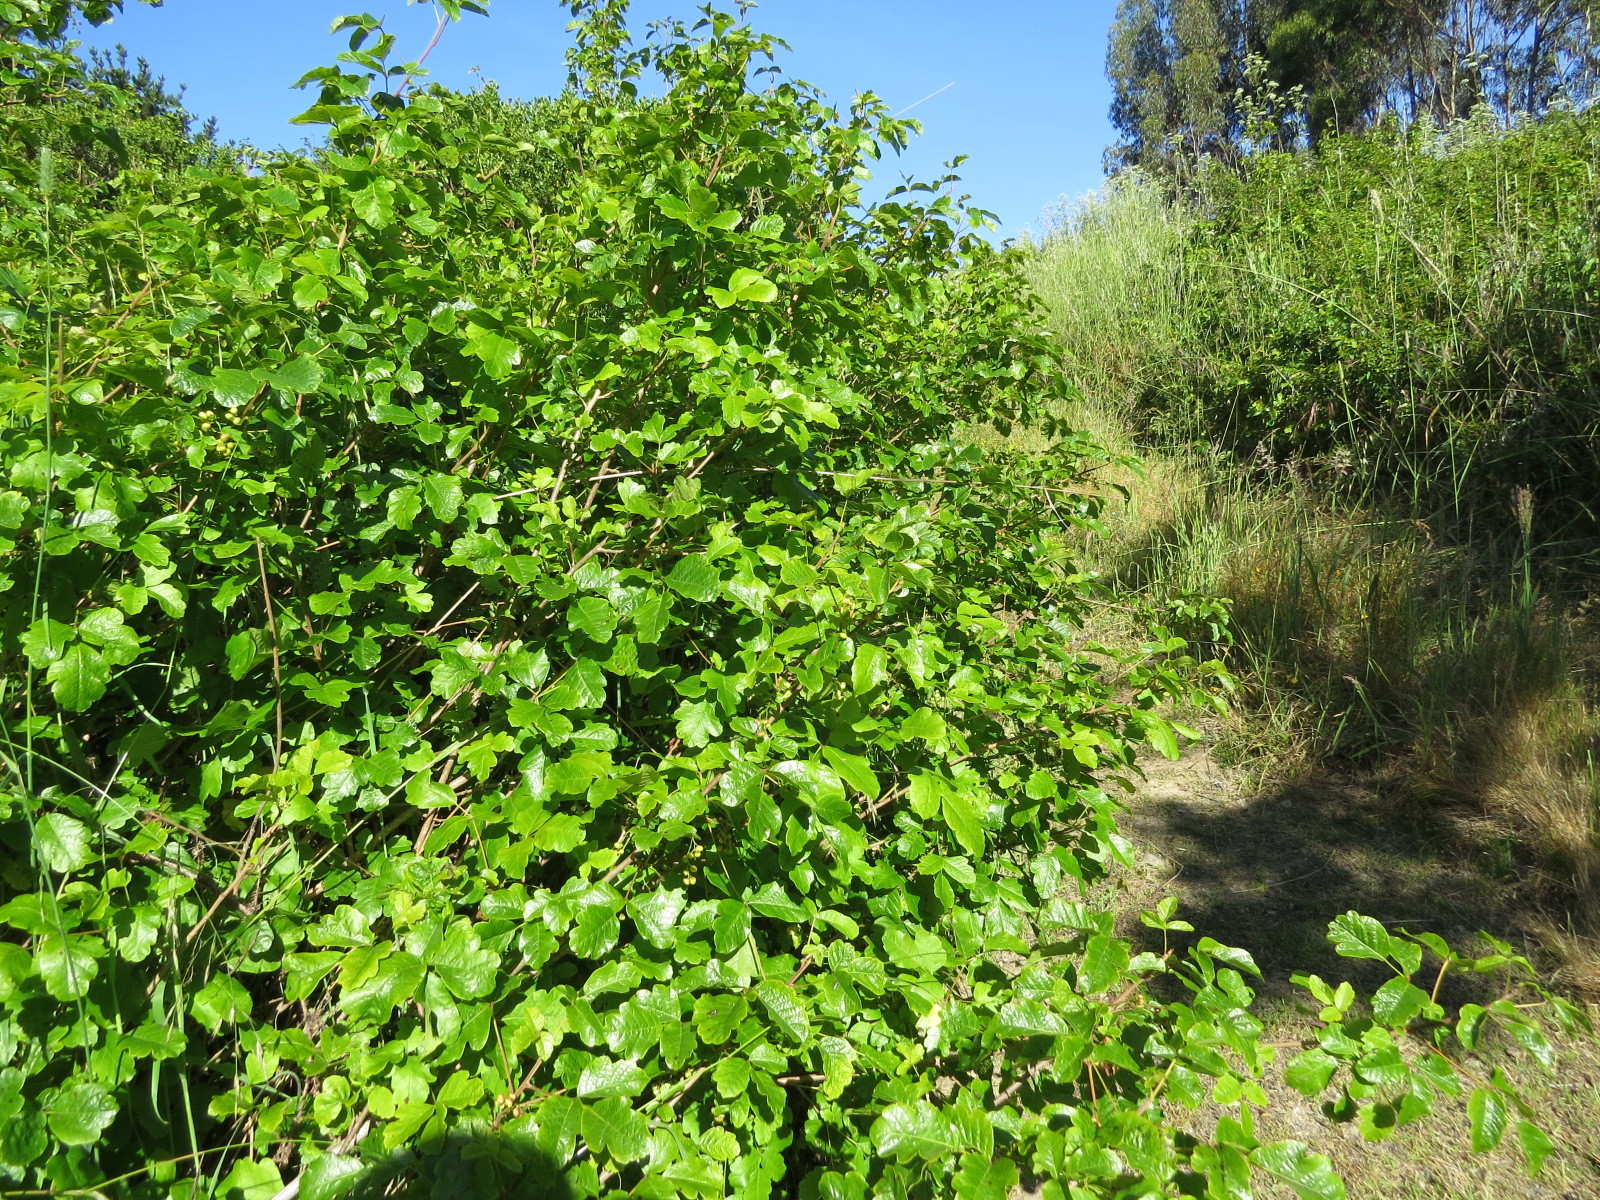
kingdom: Plantae
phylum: Tracheophyta
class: Magnoliopsida
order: Sapindales
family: Anacardiaceae
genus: Toxicodendron
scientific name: Toxicodendron diversilobum
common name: Pacific poison-oak
